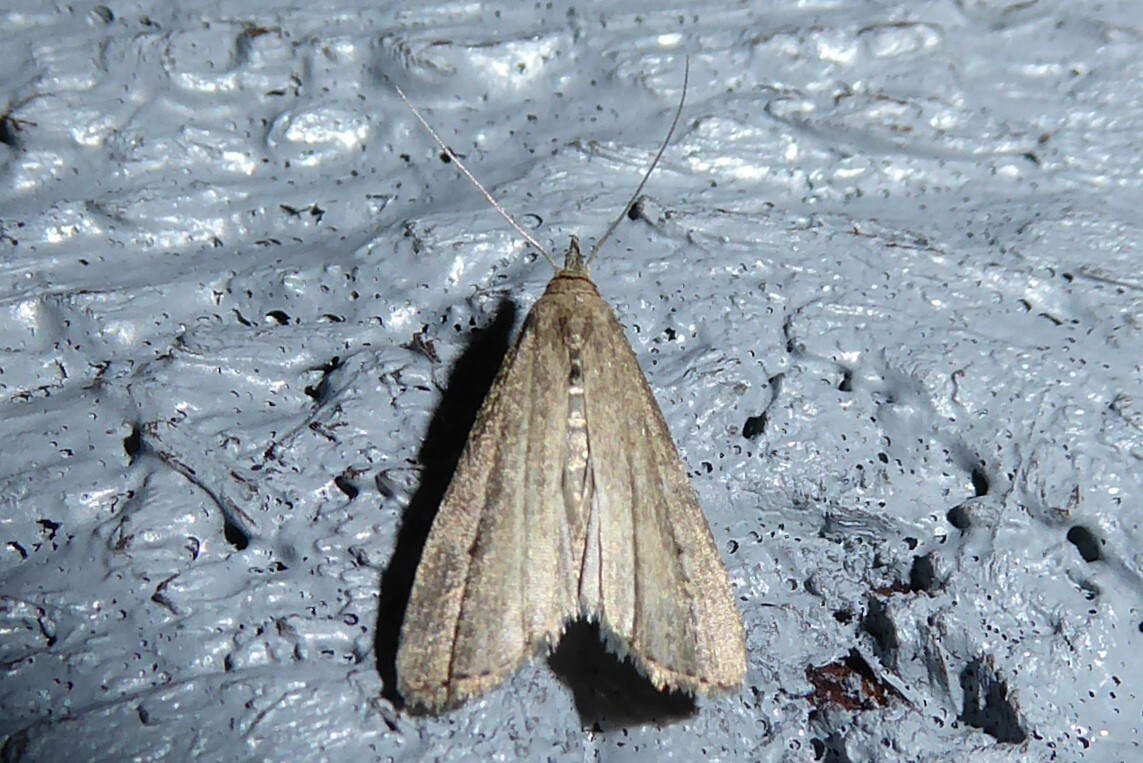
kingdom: Animalia
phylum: Arthropoda
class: Insecta
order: Lepidoptera
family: Erebidae
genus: Schrankia
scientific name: Schrankia costaestrigalis
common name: Pinion-streaked snout
